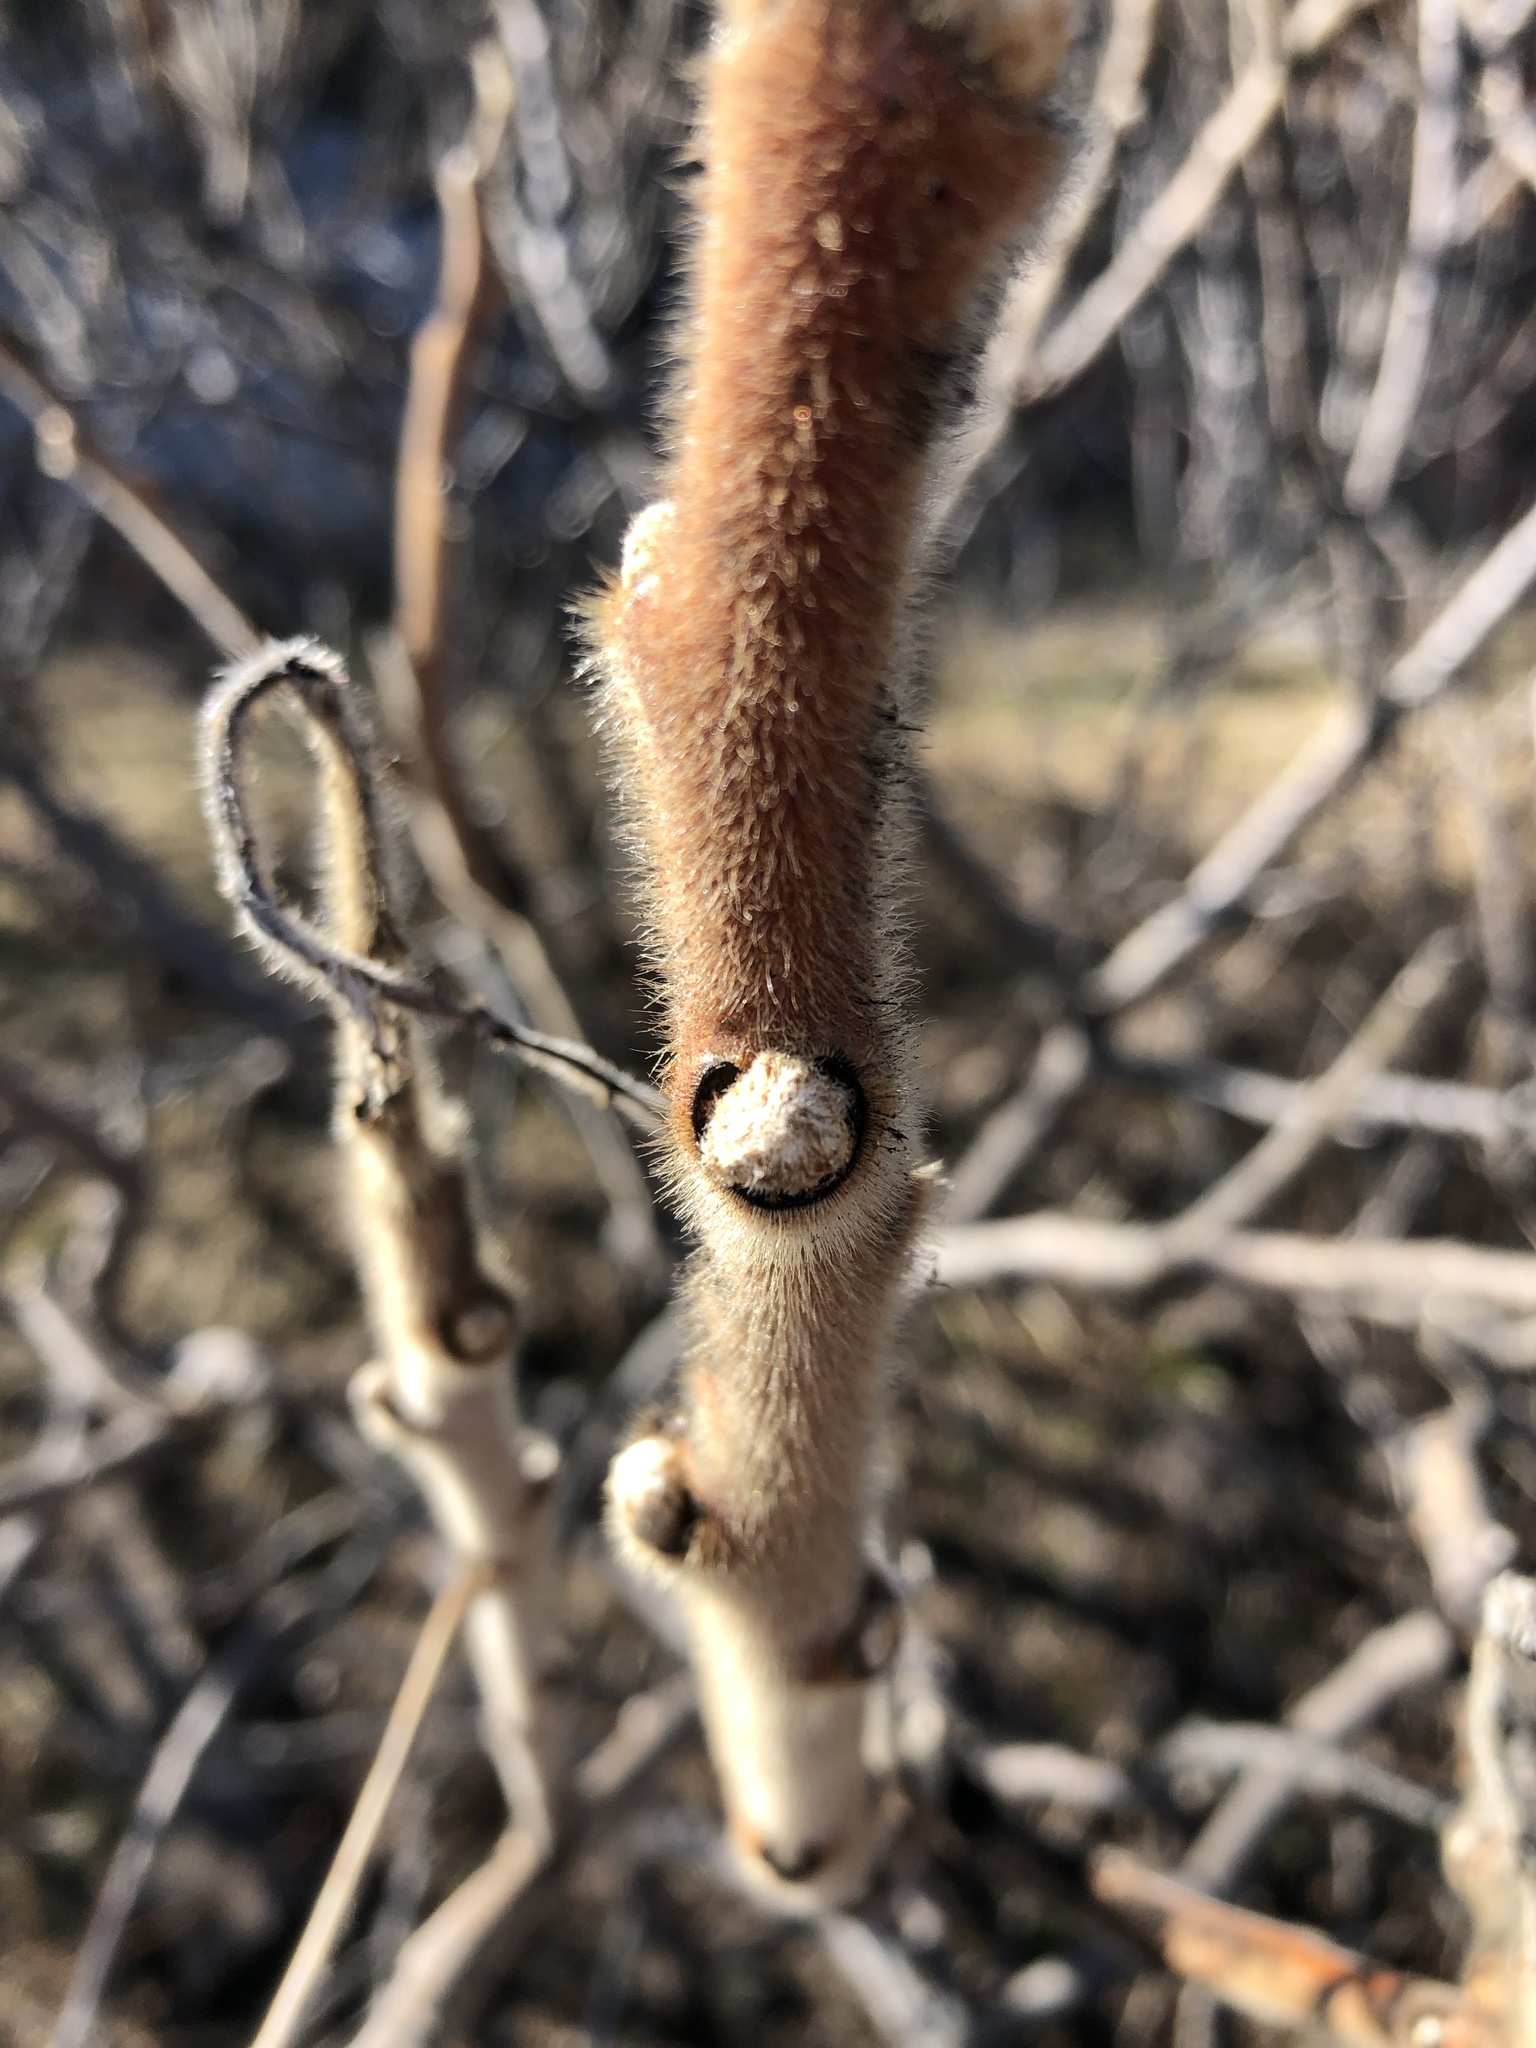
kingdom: Plantae
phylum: Tracheophyta
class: Magnoliopsida
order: Sapindales
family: Anacardiaceae
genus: Rhus
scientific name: Rhus typhina
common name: Staghorn sumac
